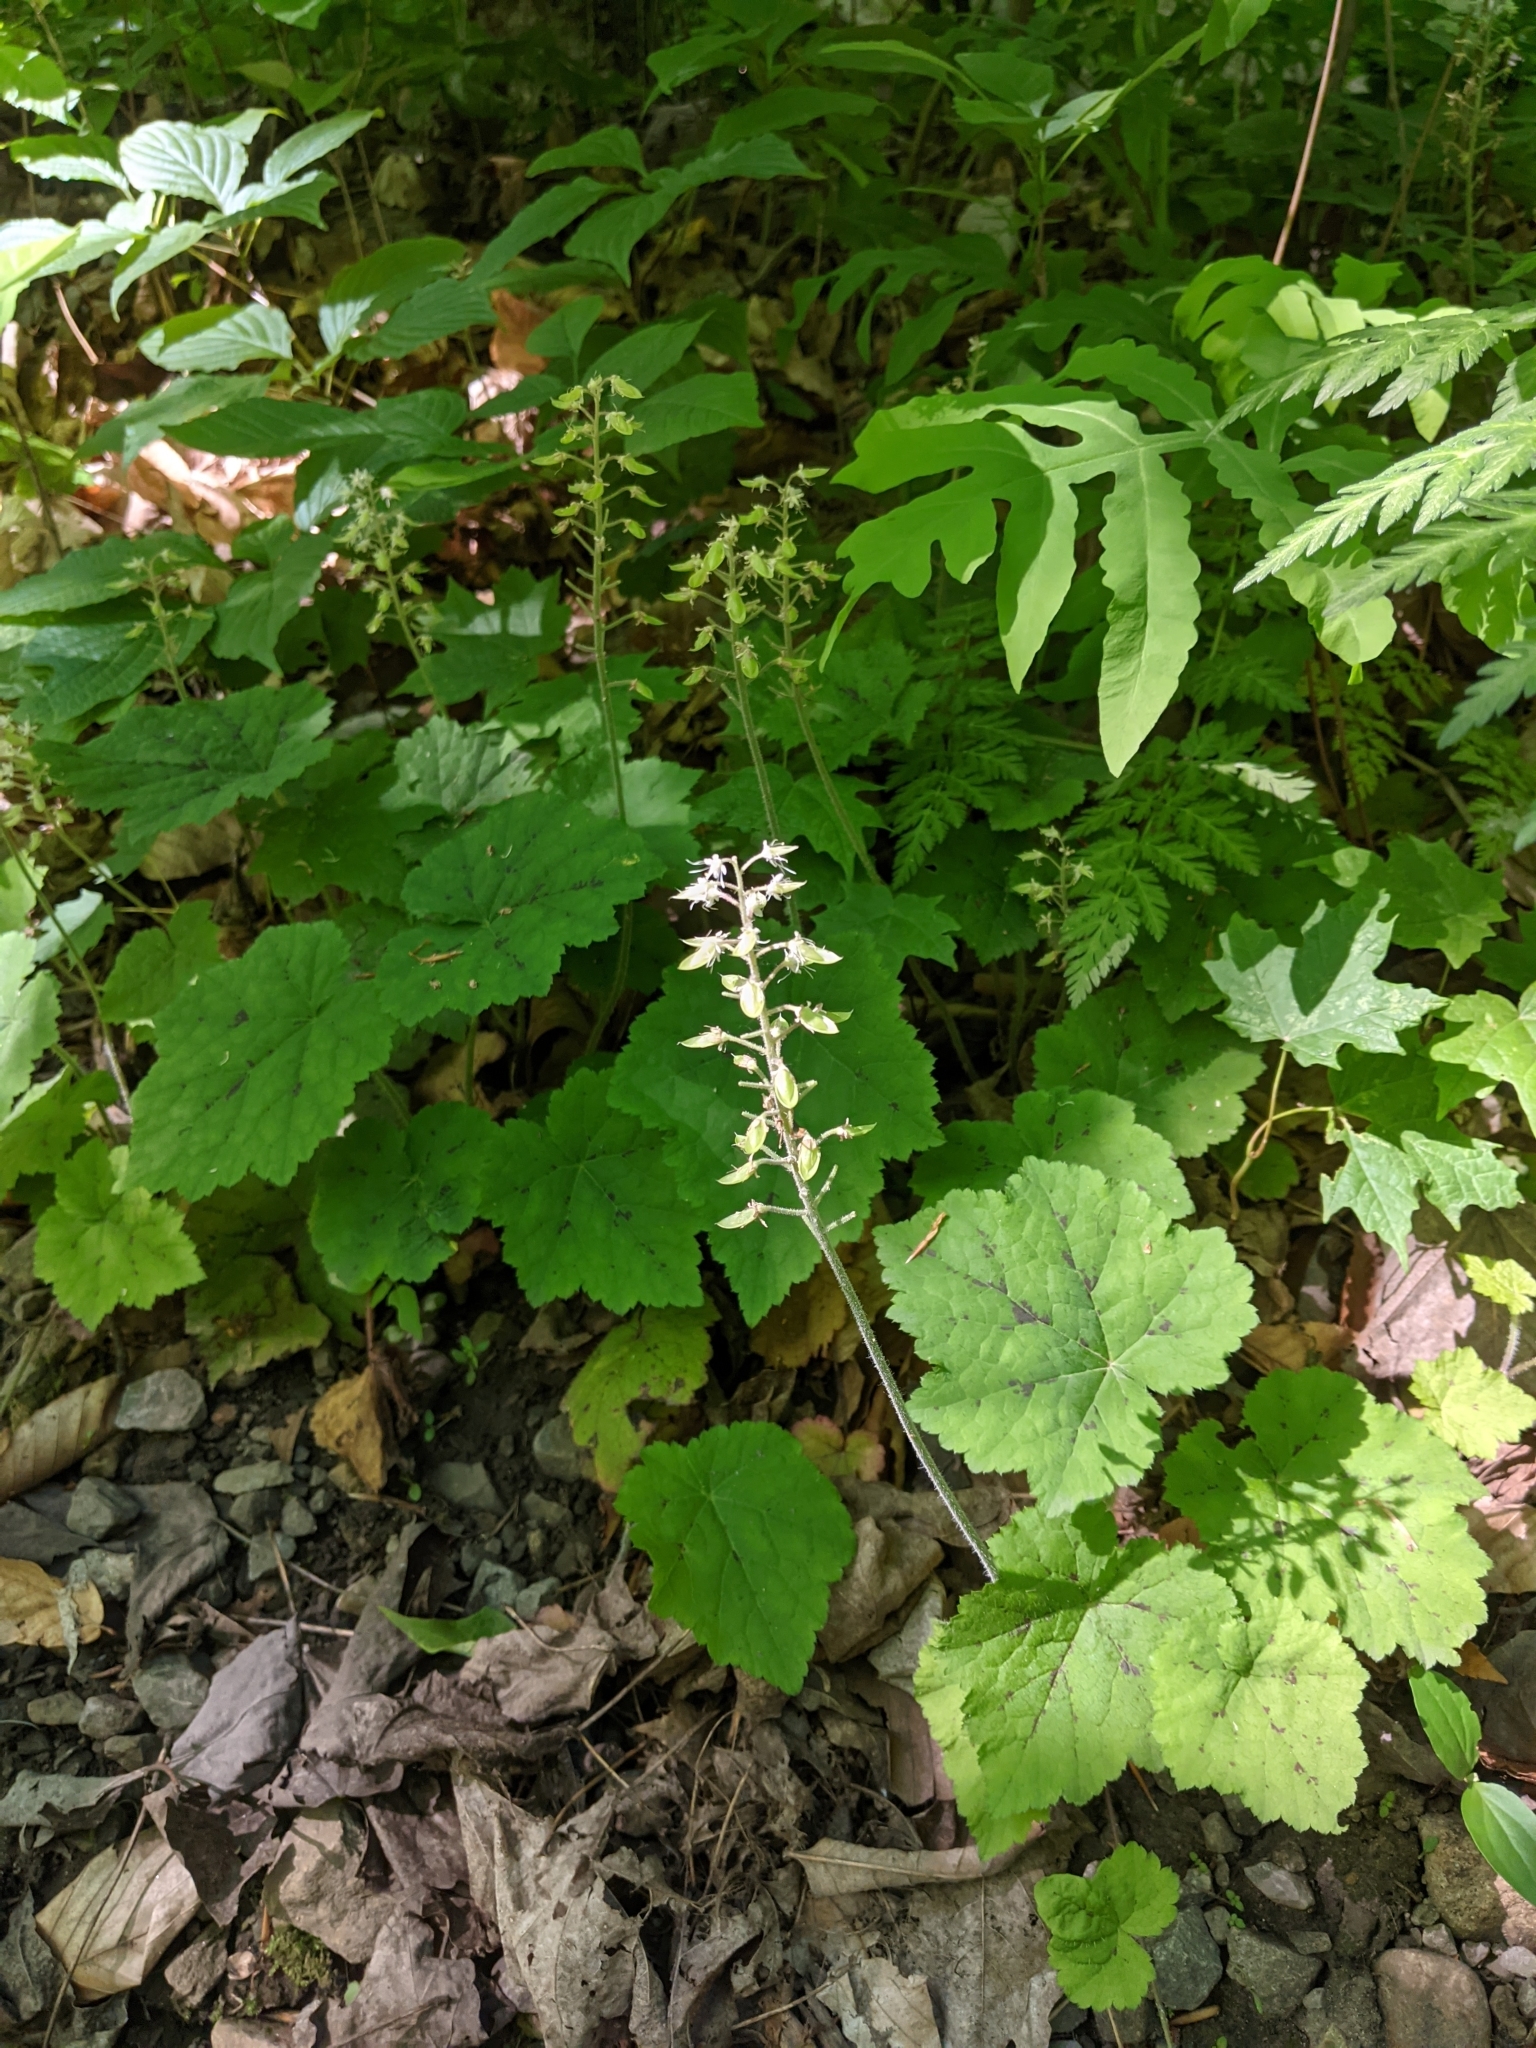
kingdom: Plantae
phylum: Tracheophyta
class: Magnoliopsida
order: Saxifragales
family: Saxifragaceae
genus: Tiarella
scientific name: Tiarella stolonifera
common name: Stoloniferous foamflower
